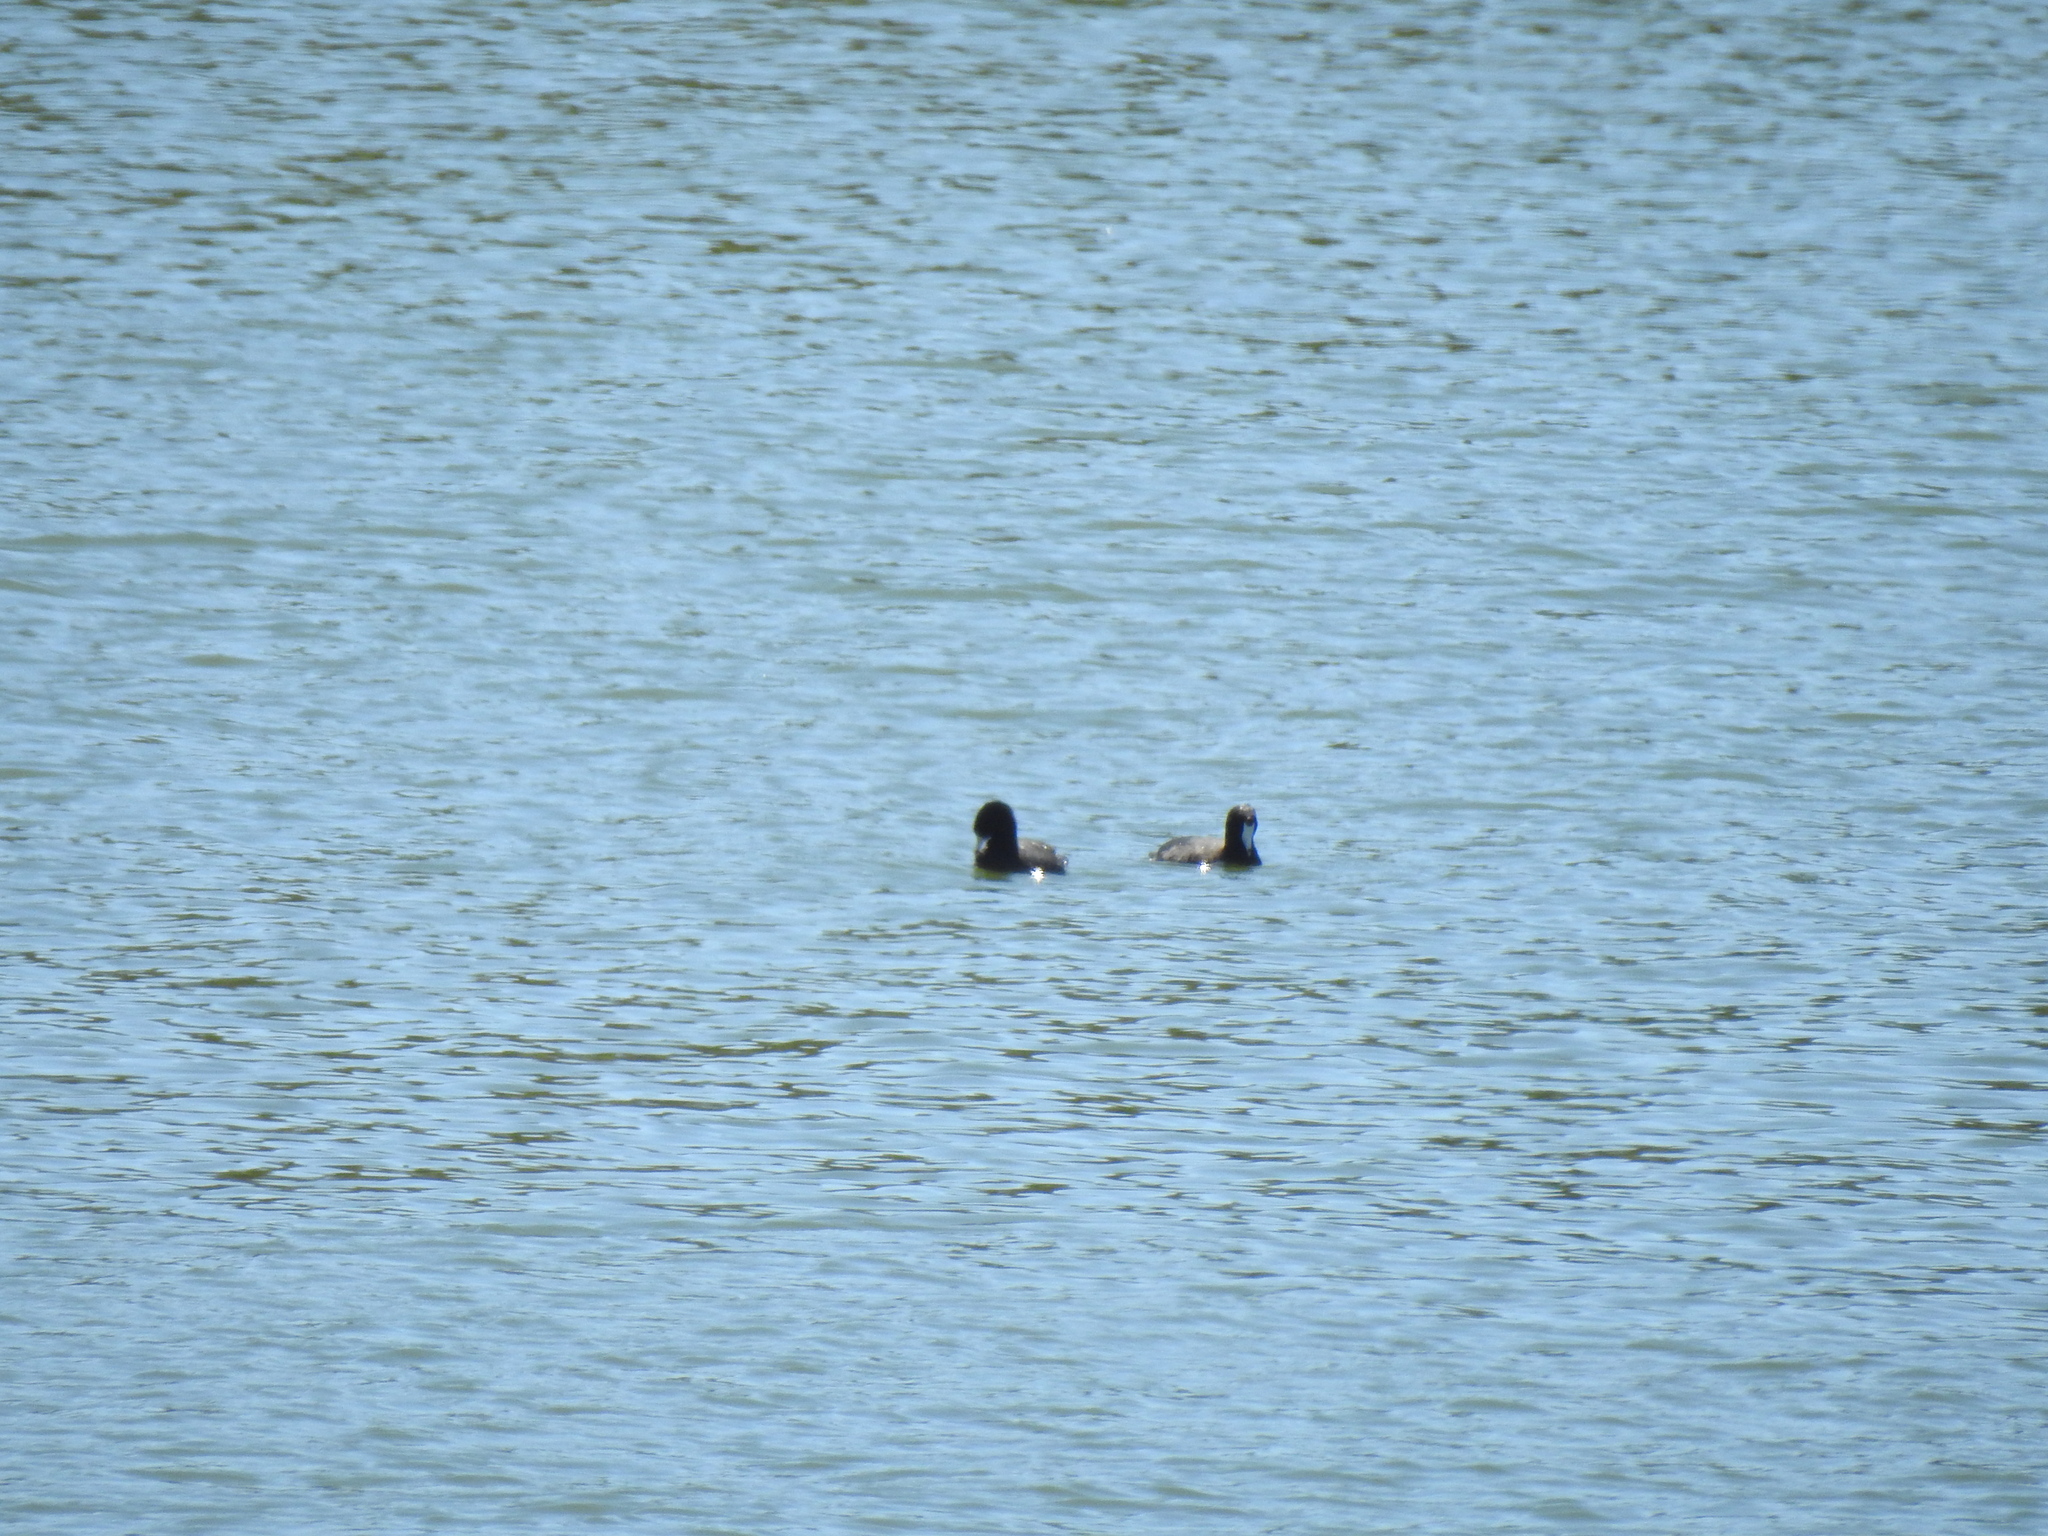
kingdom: Animalia
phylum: Chordata
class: Aves
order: Gruiformes
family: Rallidae
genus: Fulica
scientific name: Fulica americana
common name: American coot
